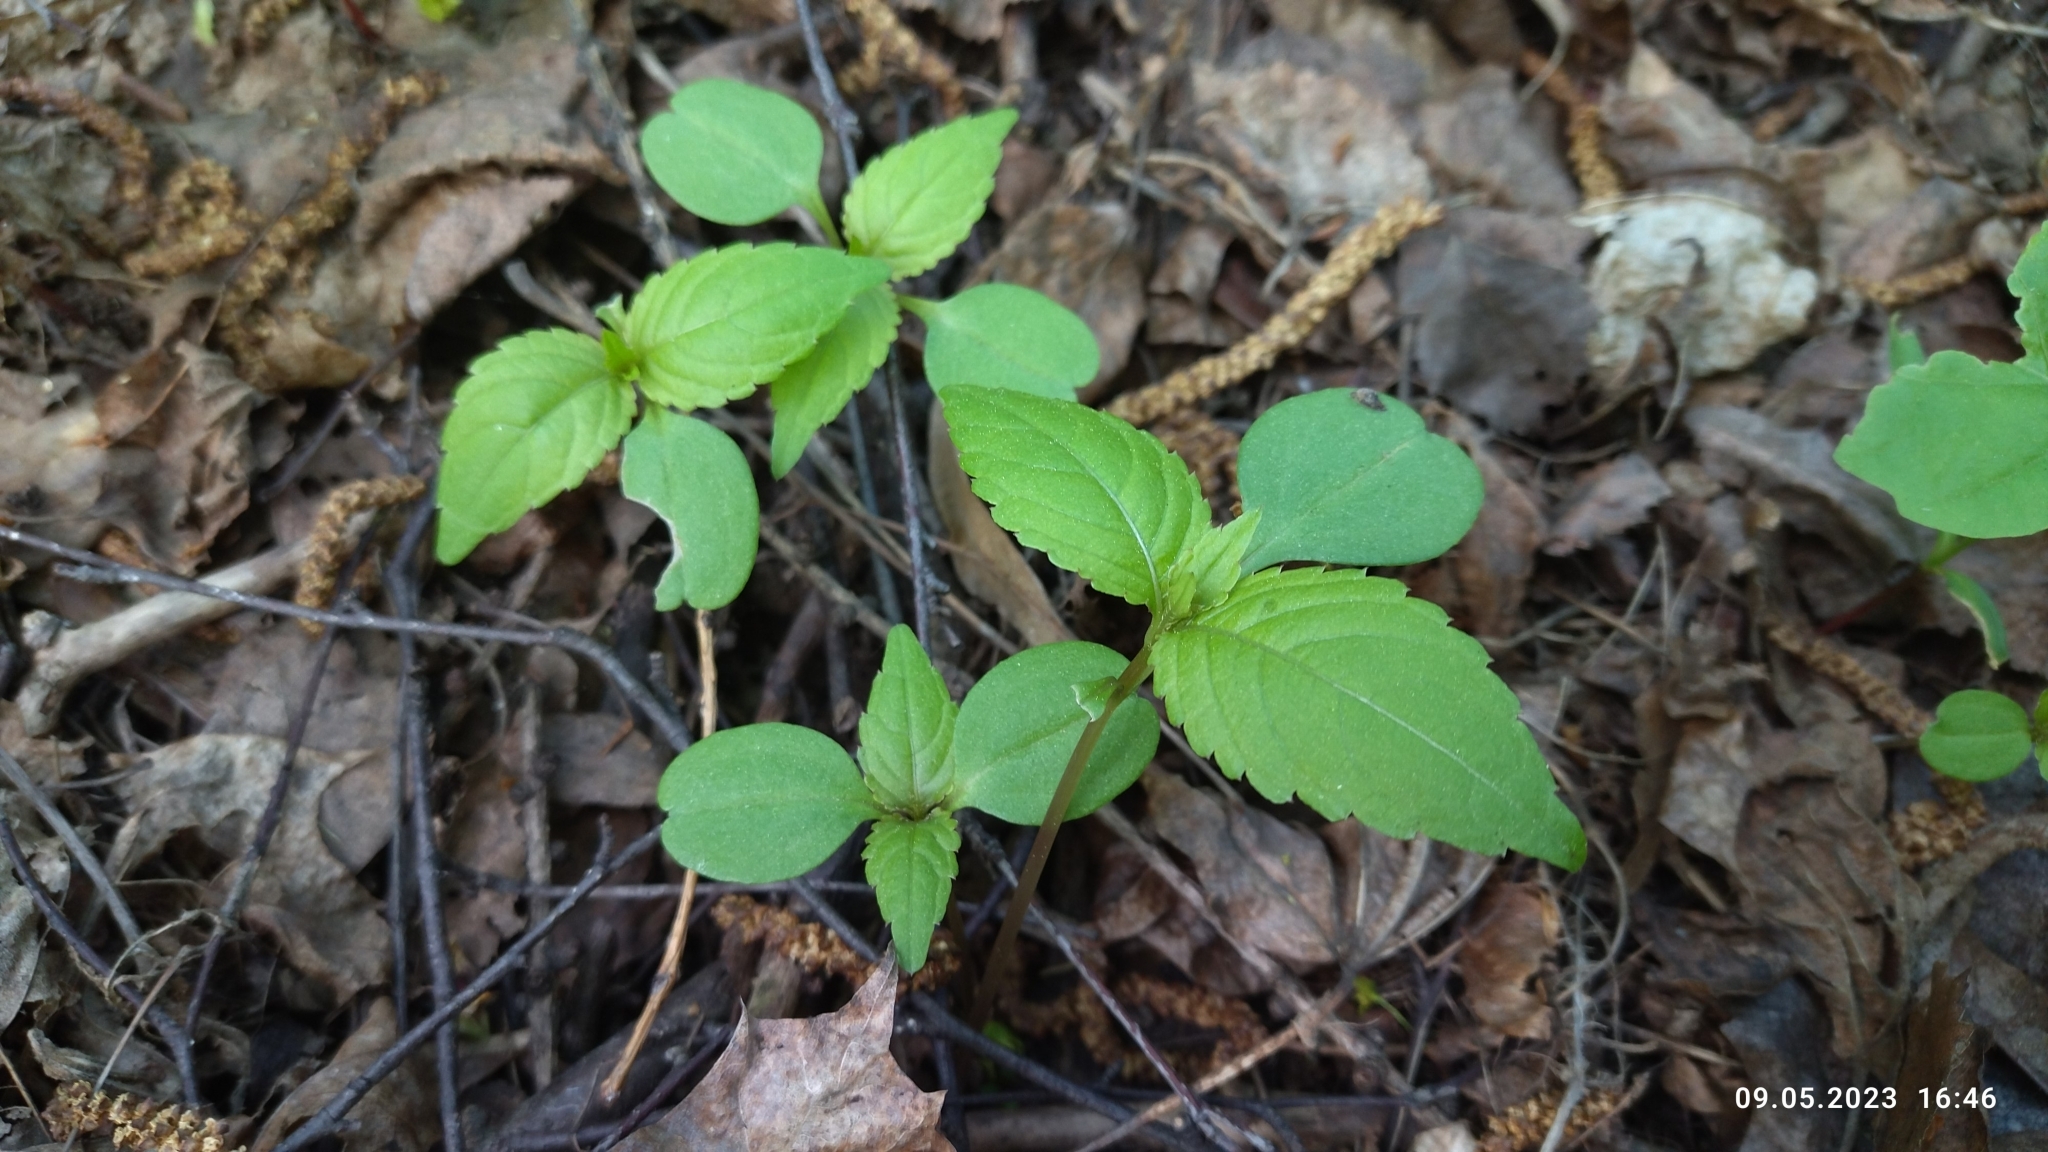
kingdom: Plantae
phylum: Tracheophyta
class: Magnoliopsida
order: Ericales
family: Balsaminaceae
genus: Impatiens
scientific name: Impatiens parviflora
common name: Small balsam
